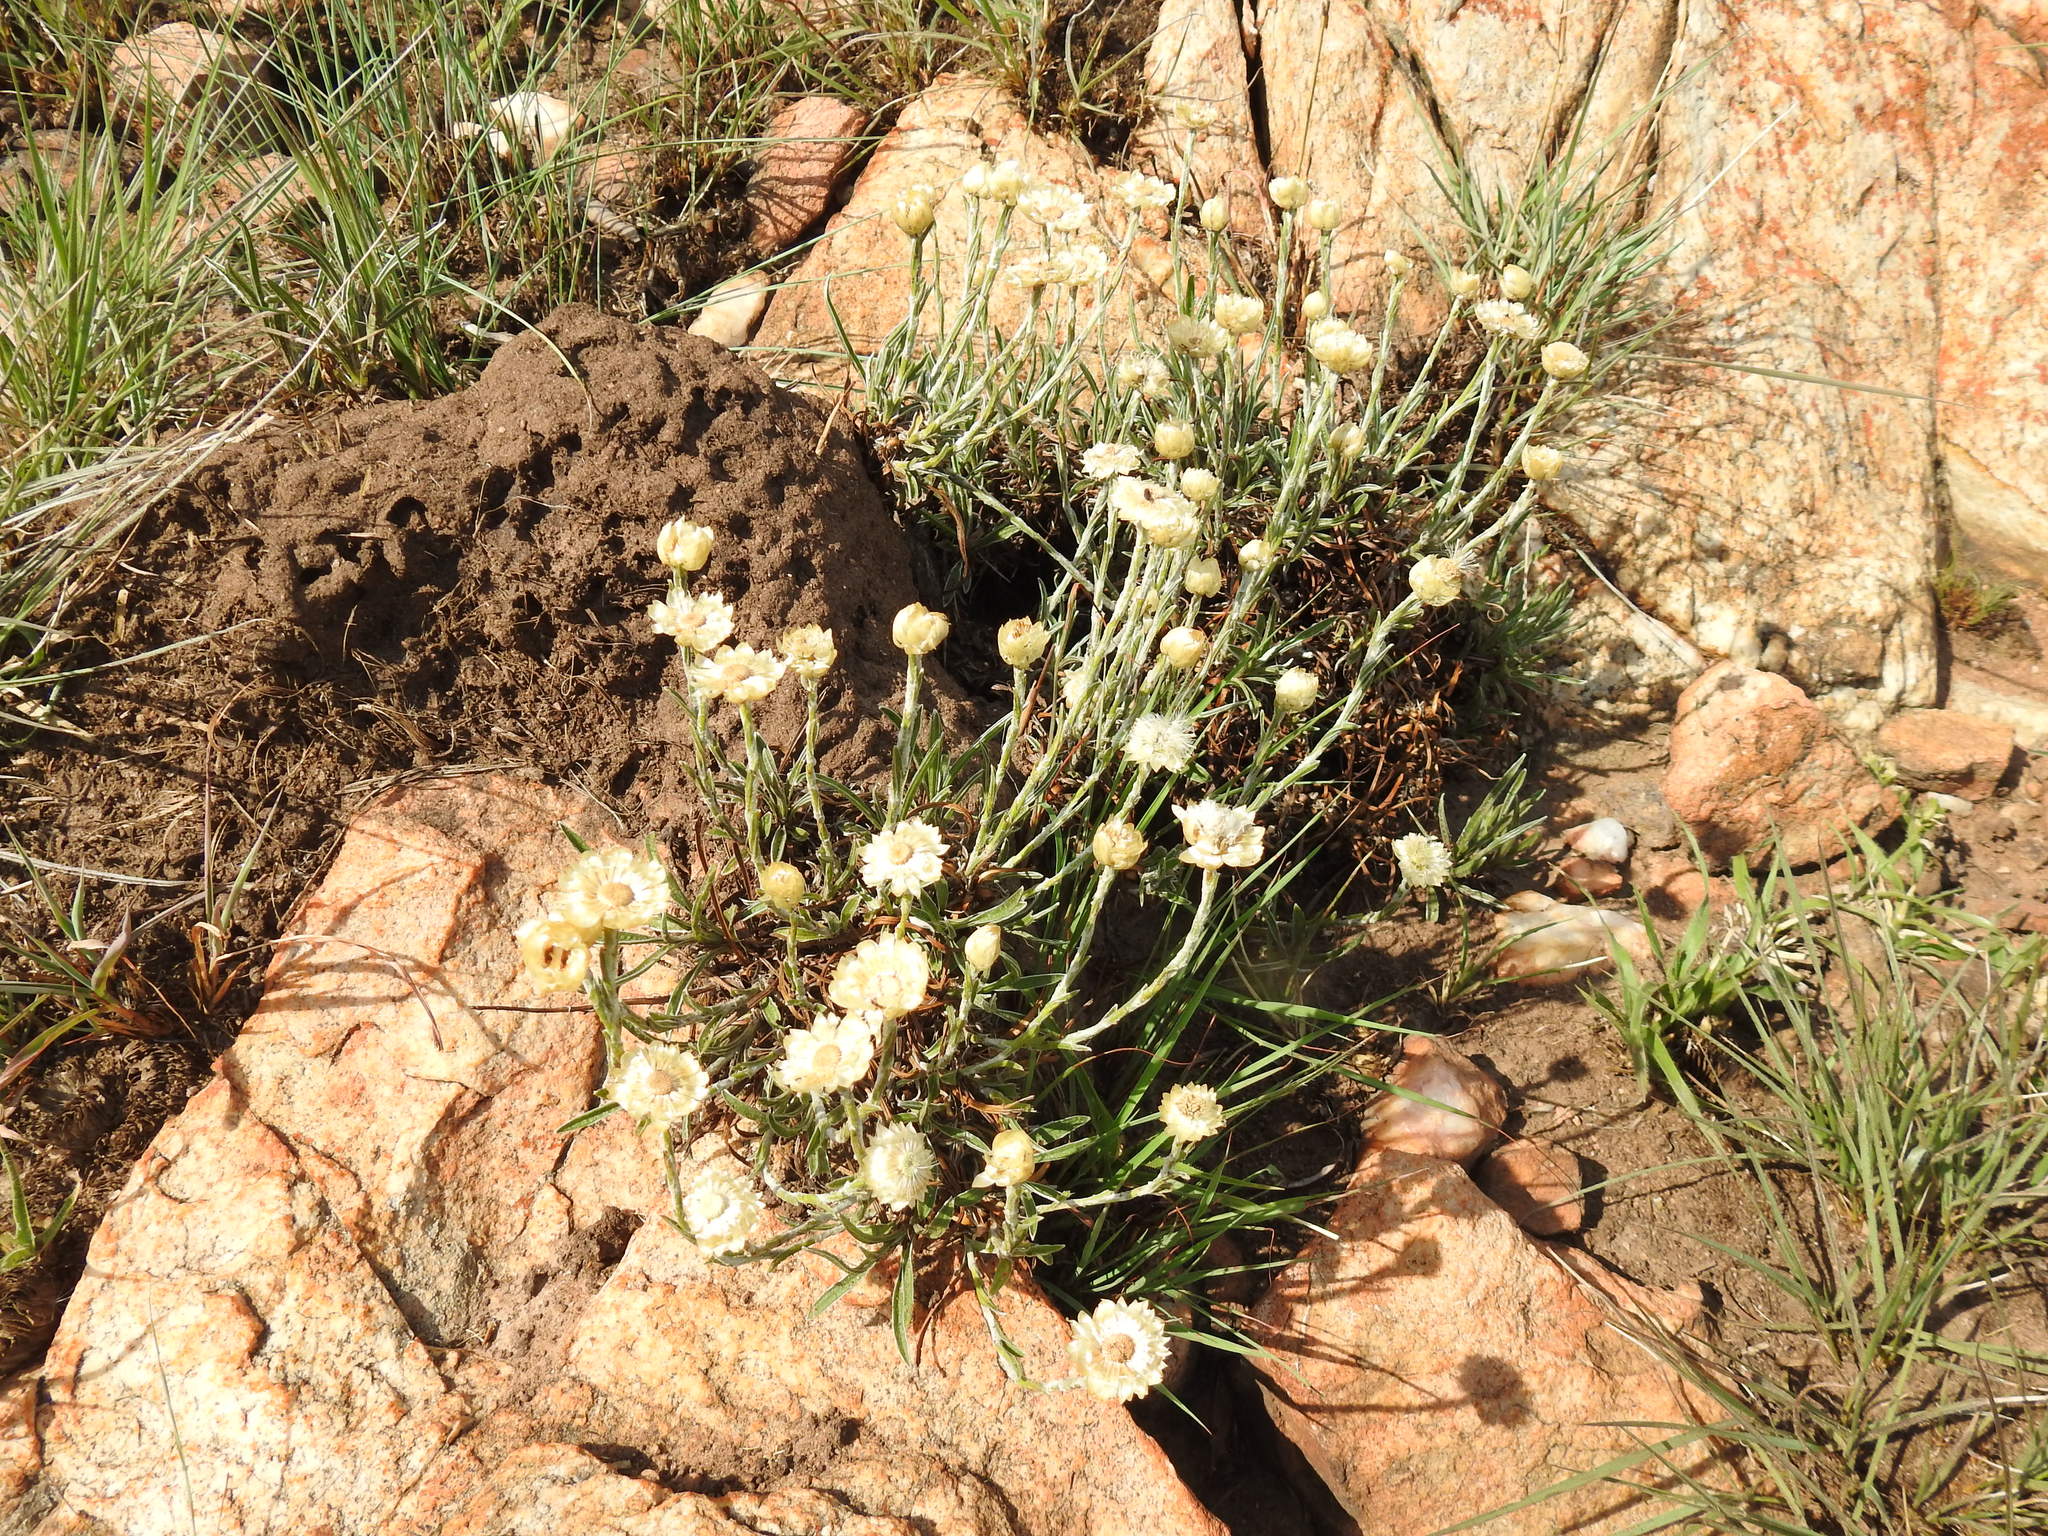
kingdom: Plantae
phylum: Tracheophyta
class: Magnoliopsida
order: Asterales
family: Asteraceae
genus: Helichrysum
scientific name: Helichrysum chionosphaerum
